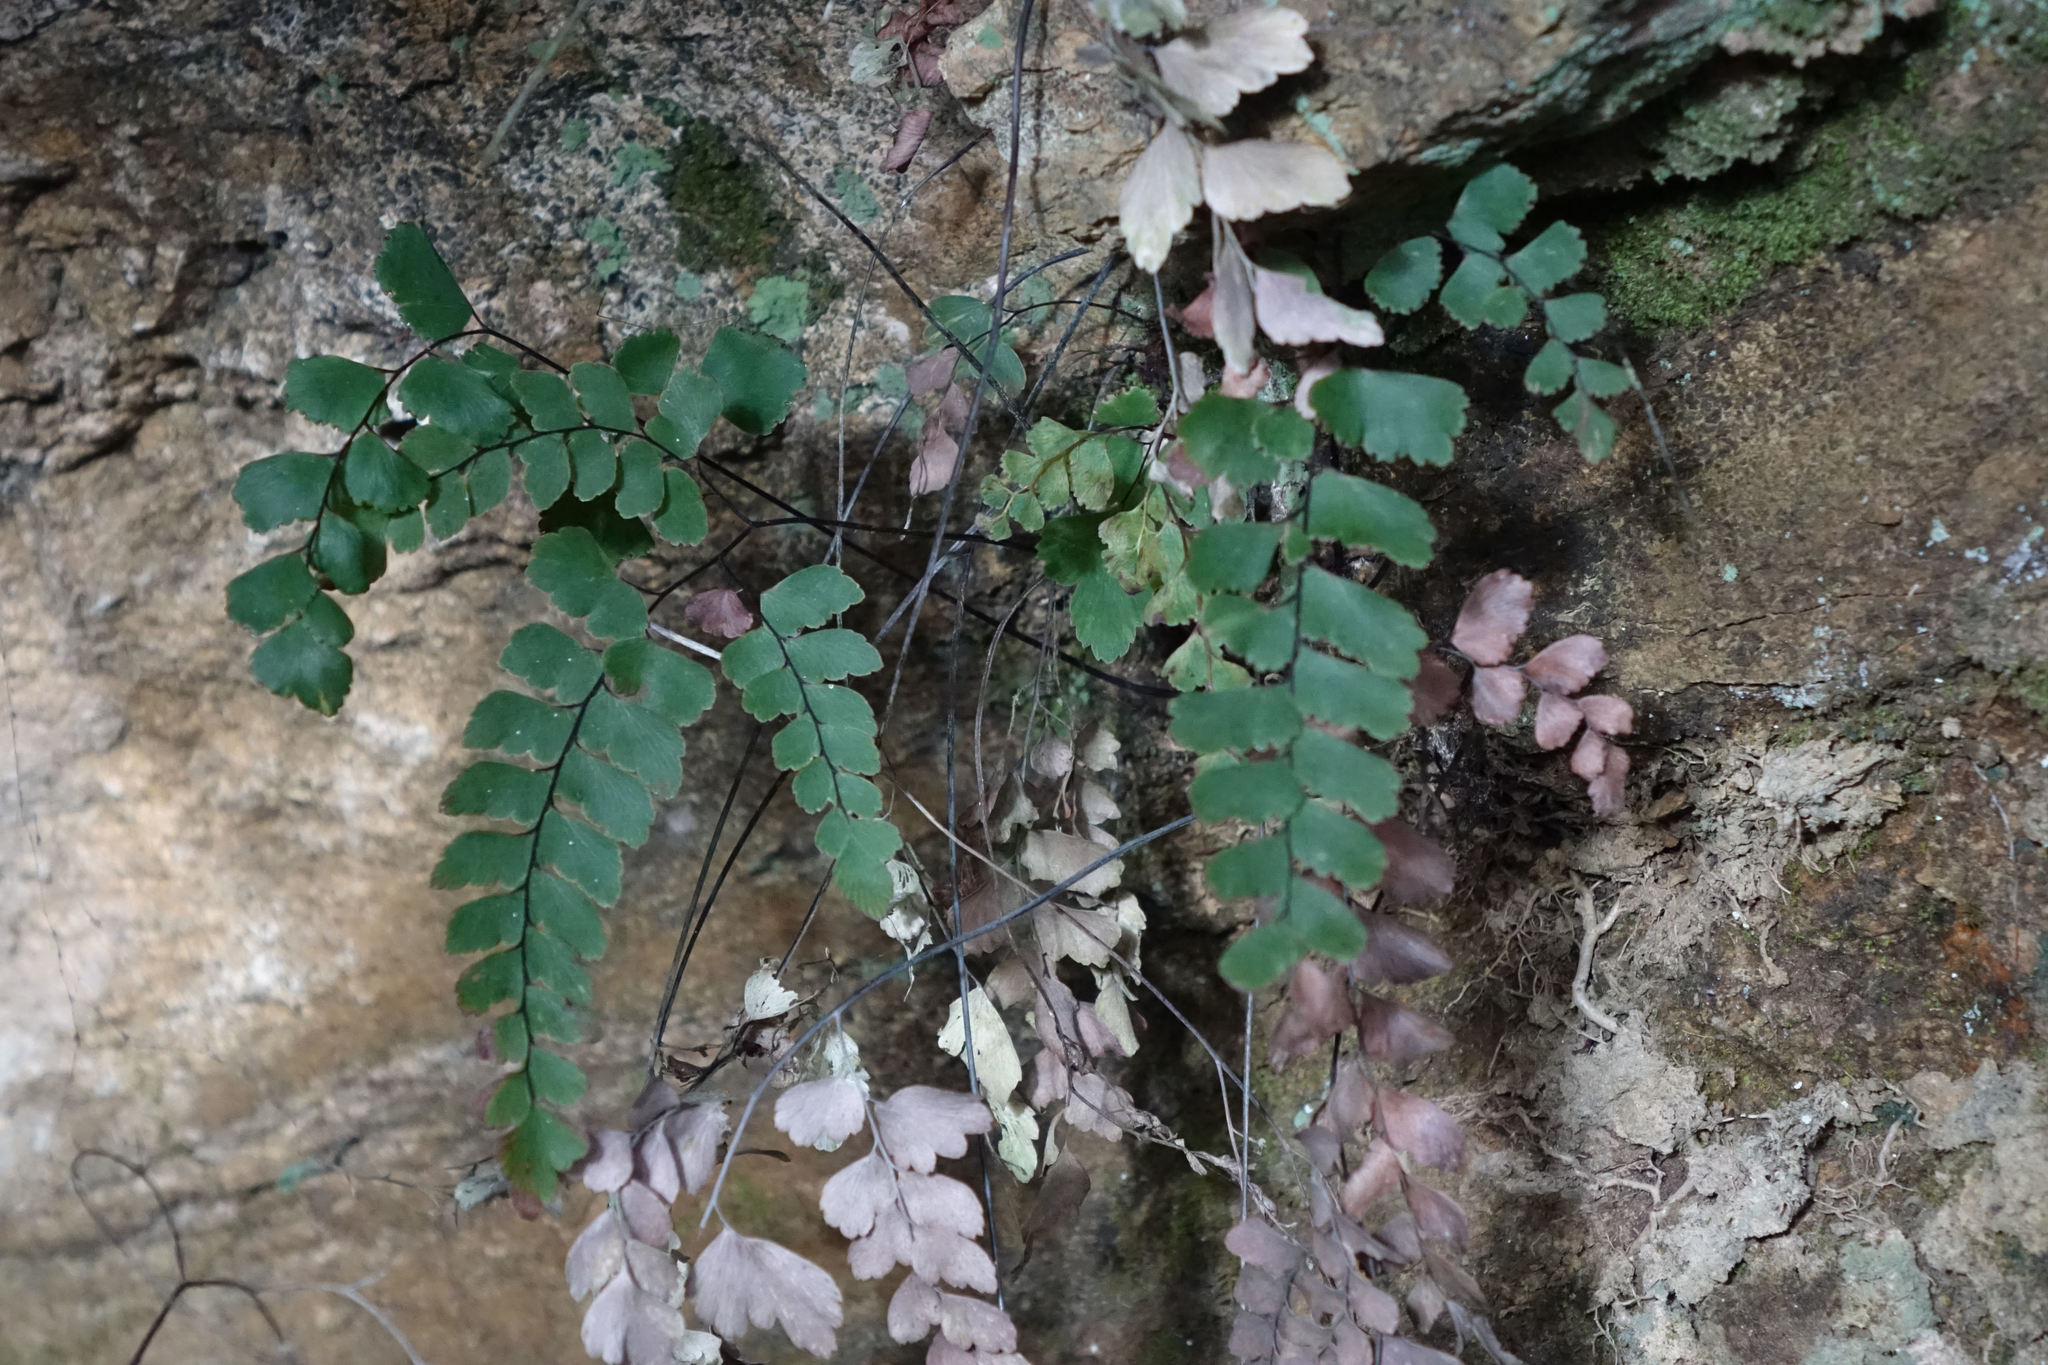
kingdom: Plantae
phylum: Tracheophyta
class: Polypodiopsida
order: Polypodiales
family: Pteridaceae
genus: Adiantum
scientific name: Adiantum cunninghamii
